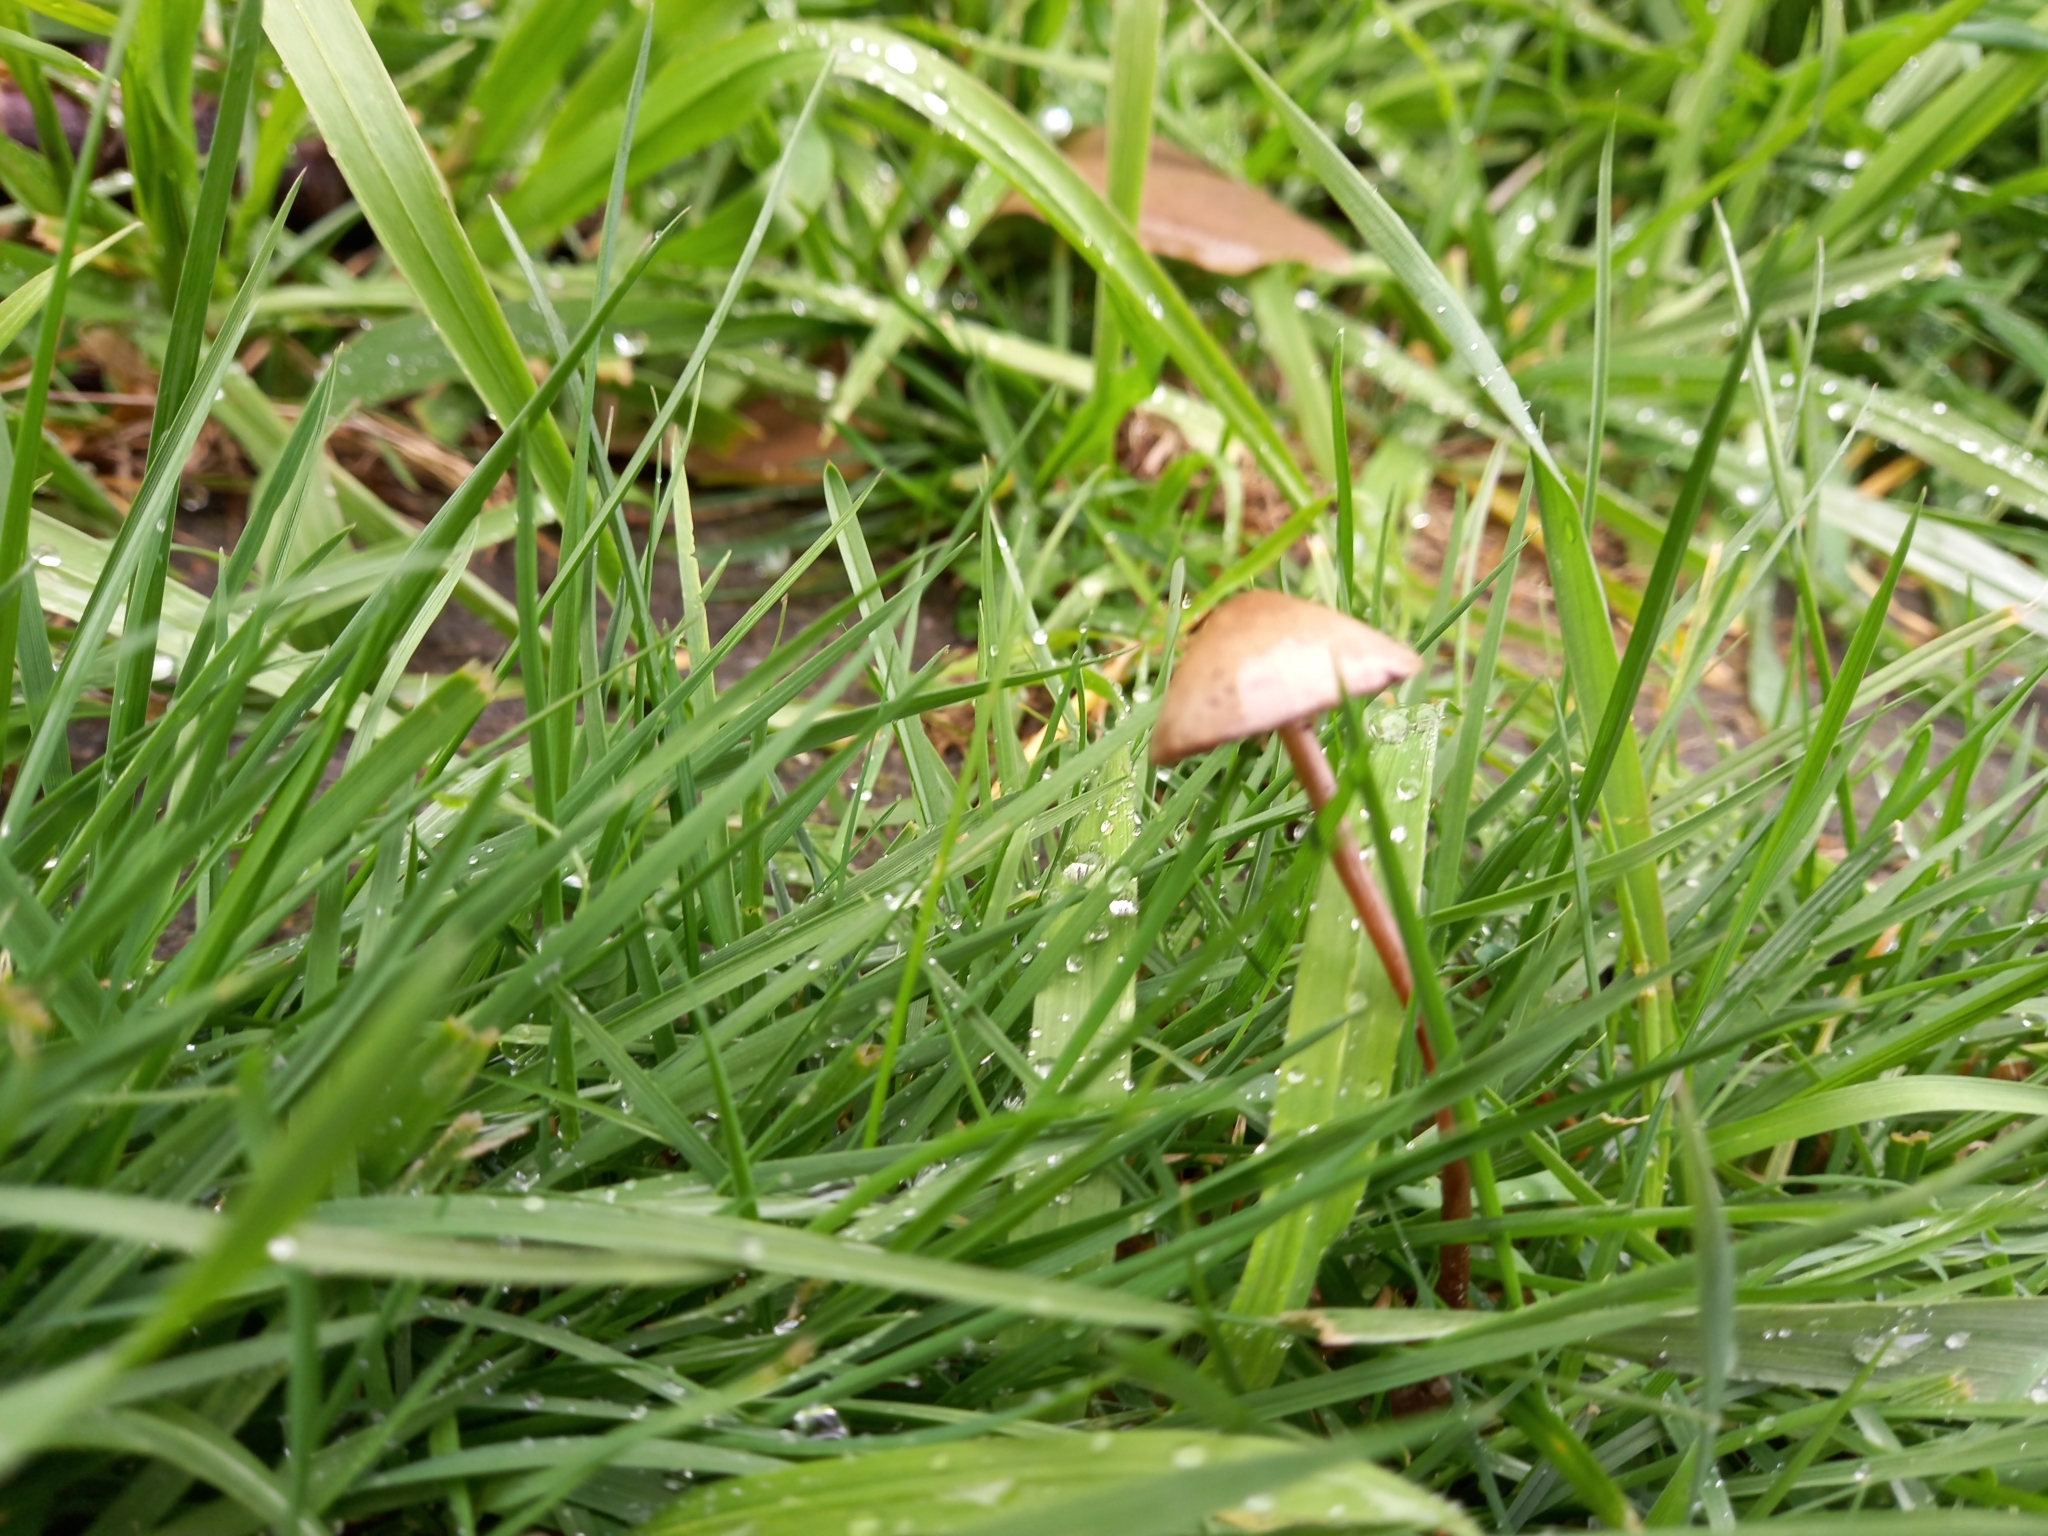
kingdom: Fungi
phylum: Basidiomycota
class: Agaricomycetes
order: Agaricales
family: Bolbitiaceae
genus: Panaeolina
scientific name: Panaeolina foenisecii
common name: Brown hay cap
